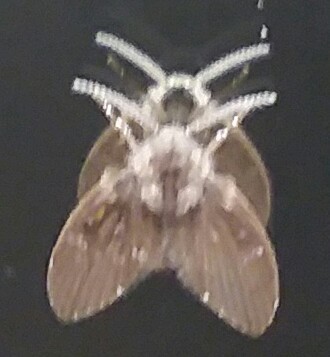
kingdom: Animalia
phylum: Arthropoda
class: Insecta
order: Diptera
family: Psychodidae
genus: Clogmia
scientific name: Clogmia albipunctatus
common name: White-spotted moth fly
